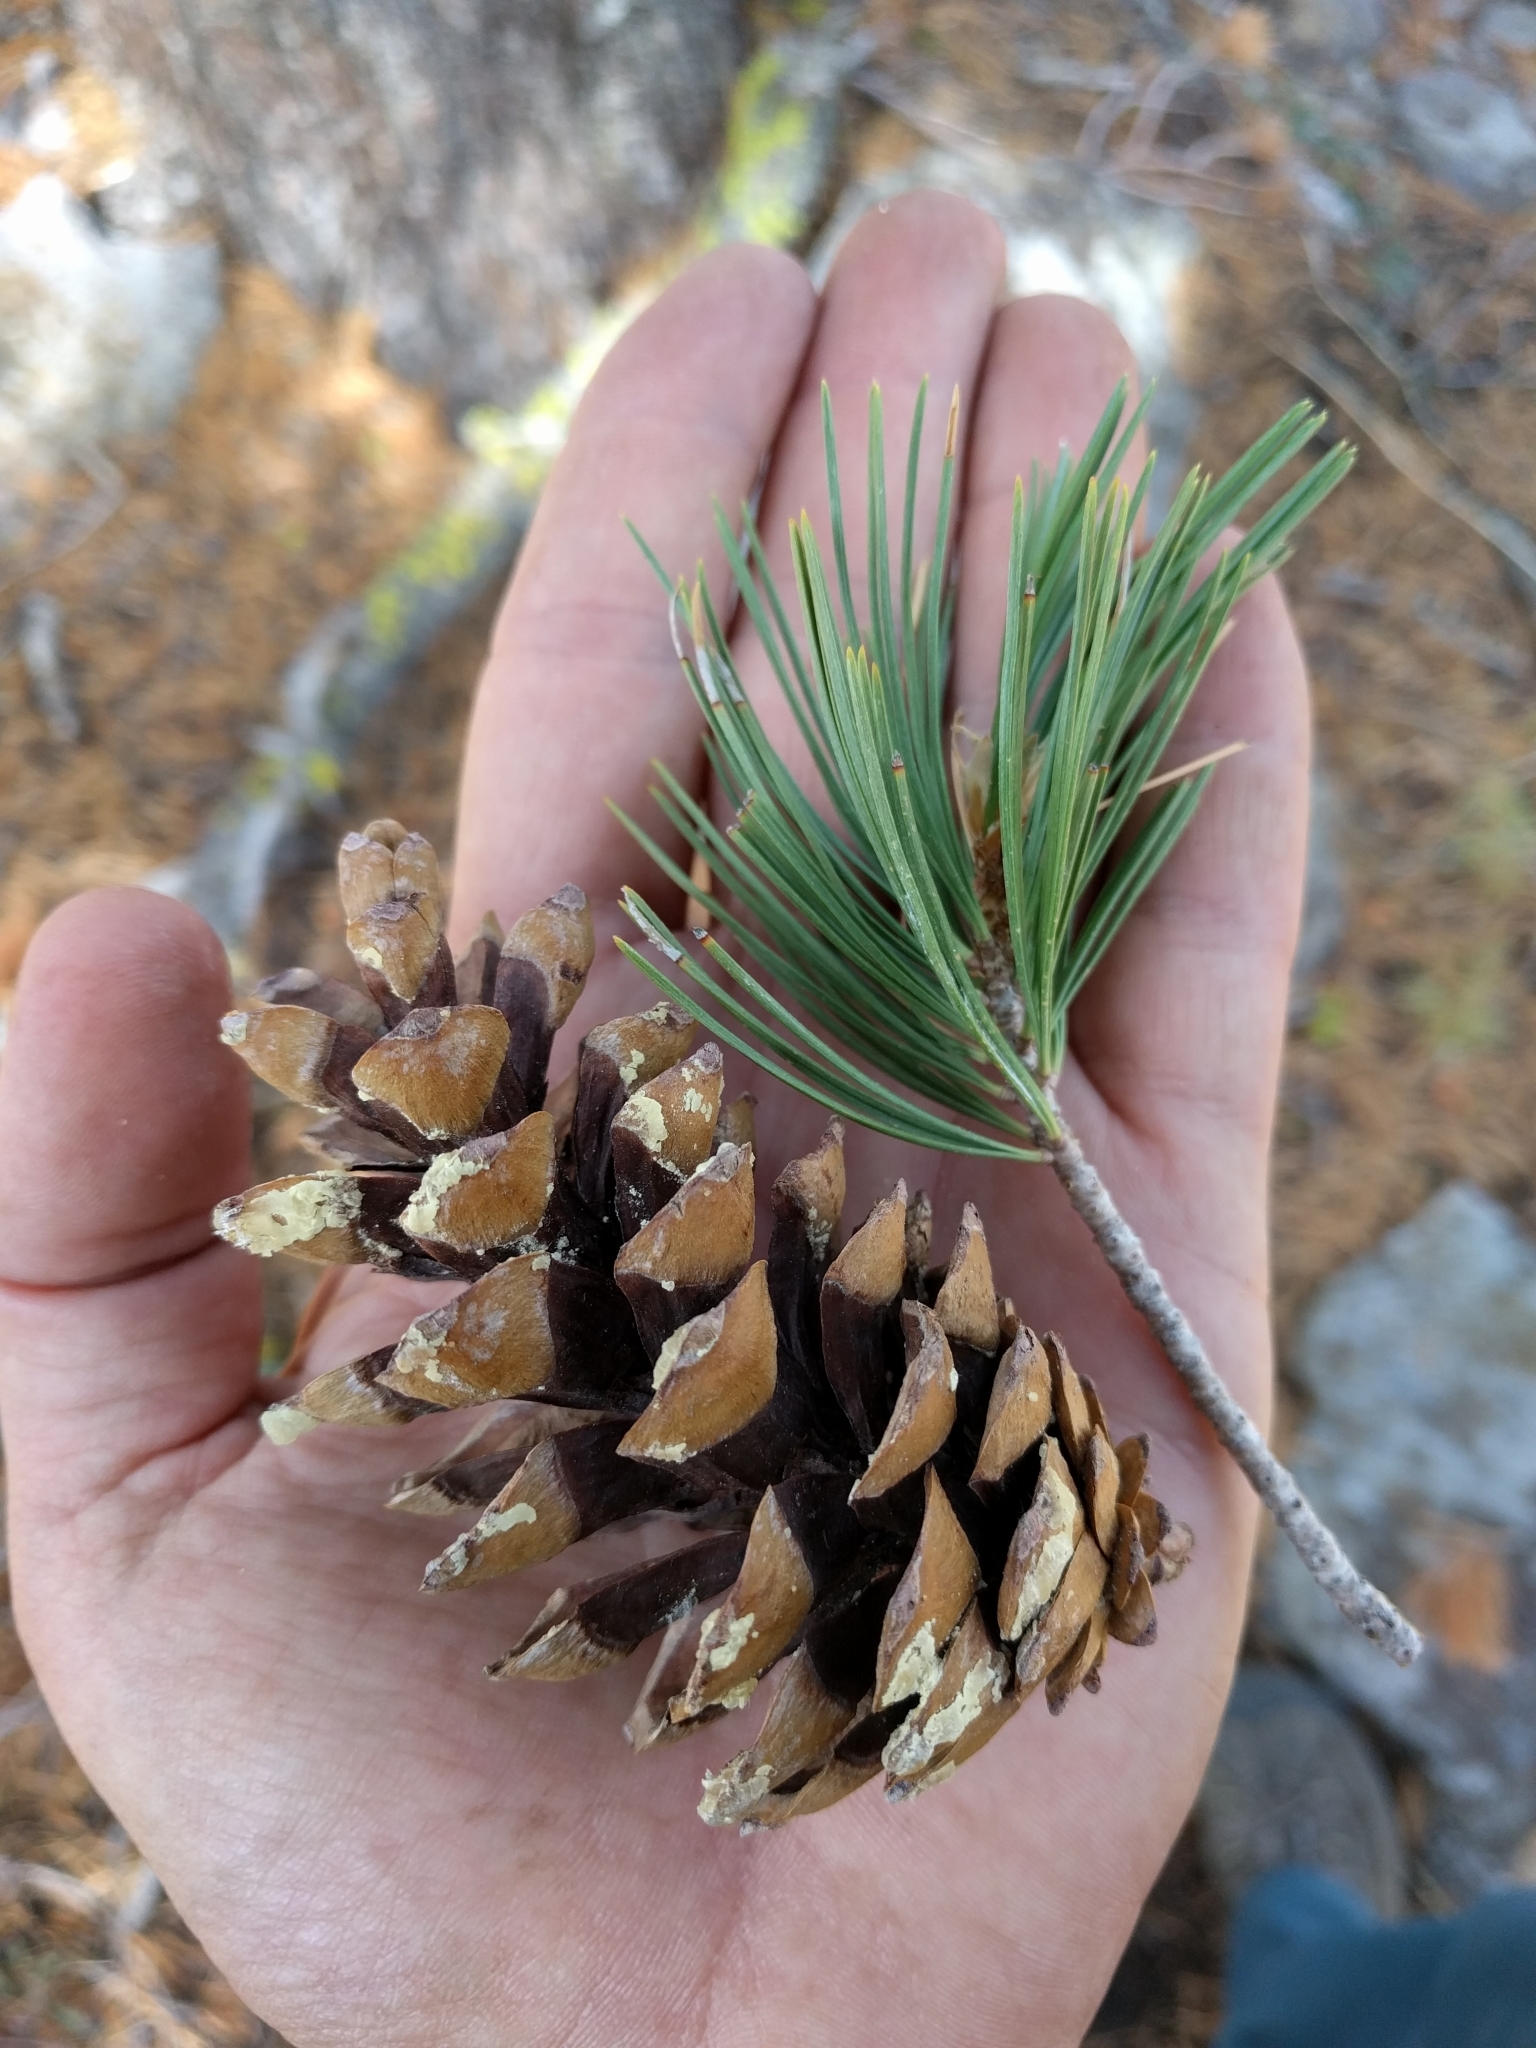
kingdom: Plantae
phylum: Tracheophyta
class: Pinopsida
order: Pinales
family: Pinaceae
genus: Pinus
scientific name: Pinus monticola
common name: Western white pine
